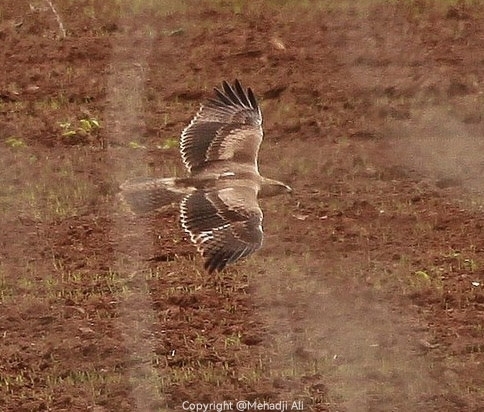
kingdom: Animalia
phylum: Chordata
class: Aves
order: Accipitriformes
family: Accipitridae
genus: Aquila
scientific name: Aquila fasciata
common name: Bonelli's eagle
